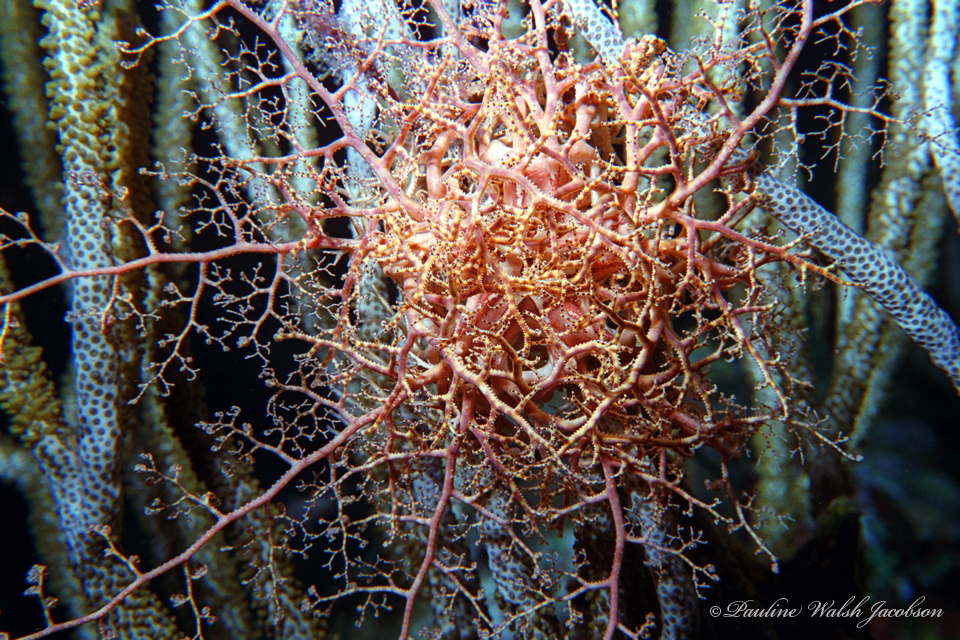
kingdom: Animalia
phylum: Echinodermata
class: Ophiuroidea
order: Euryalida
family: Gorgonocephalidae
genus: Astrophyton
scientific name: Astrophyton muricatum
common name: Basket starfish
